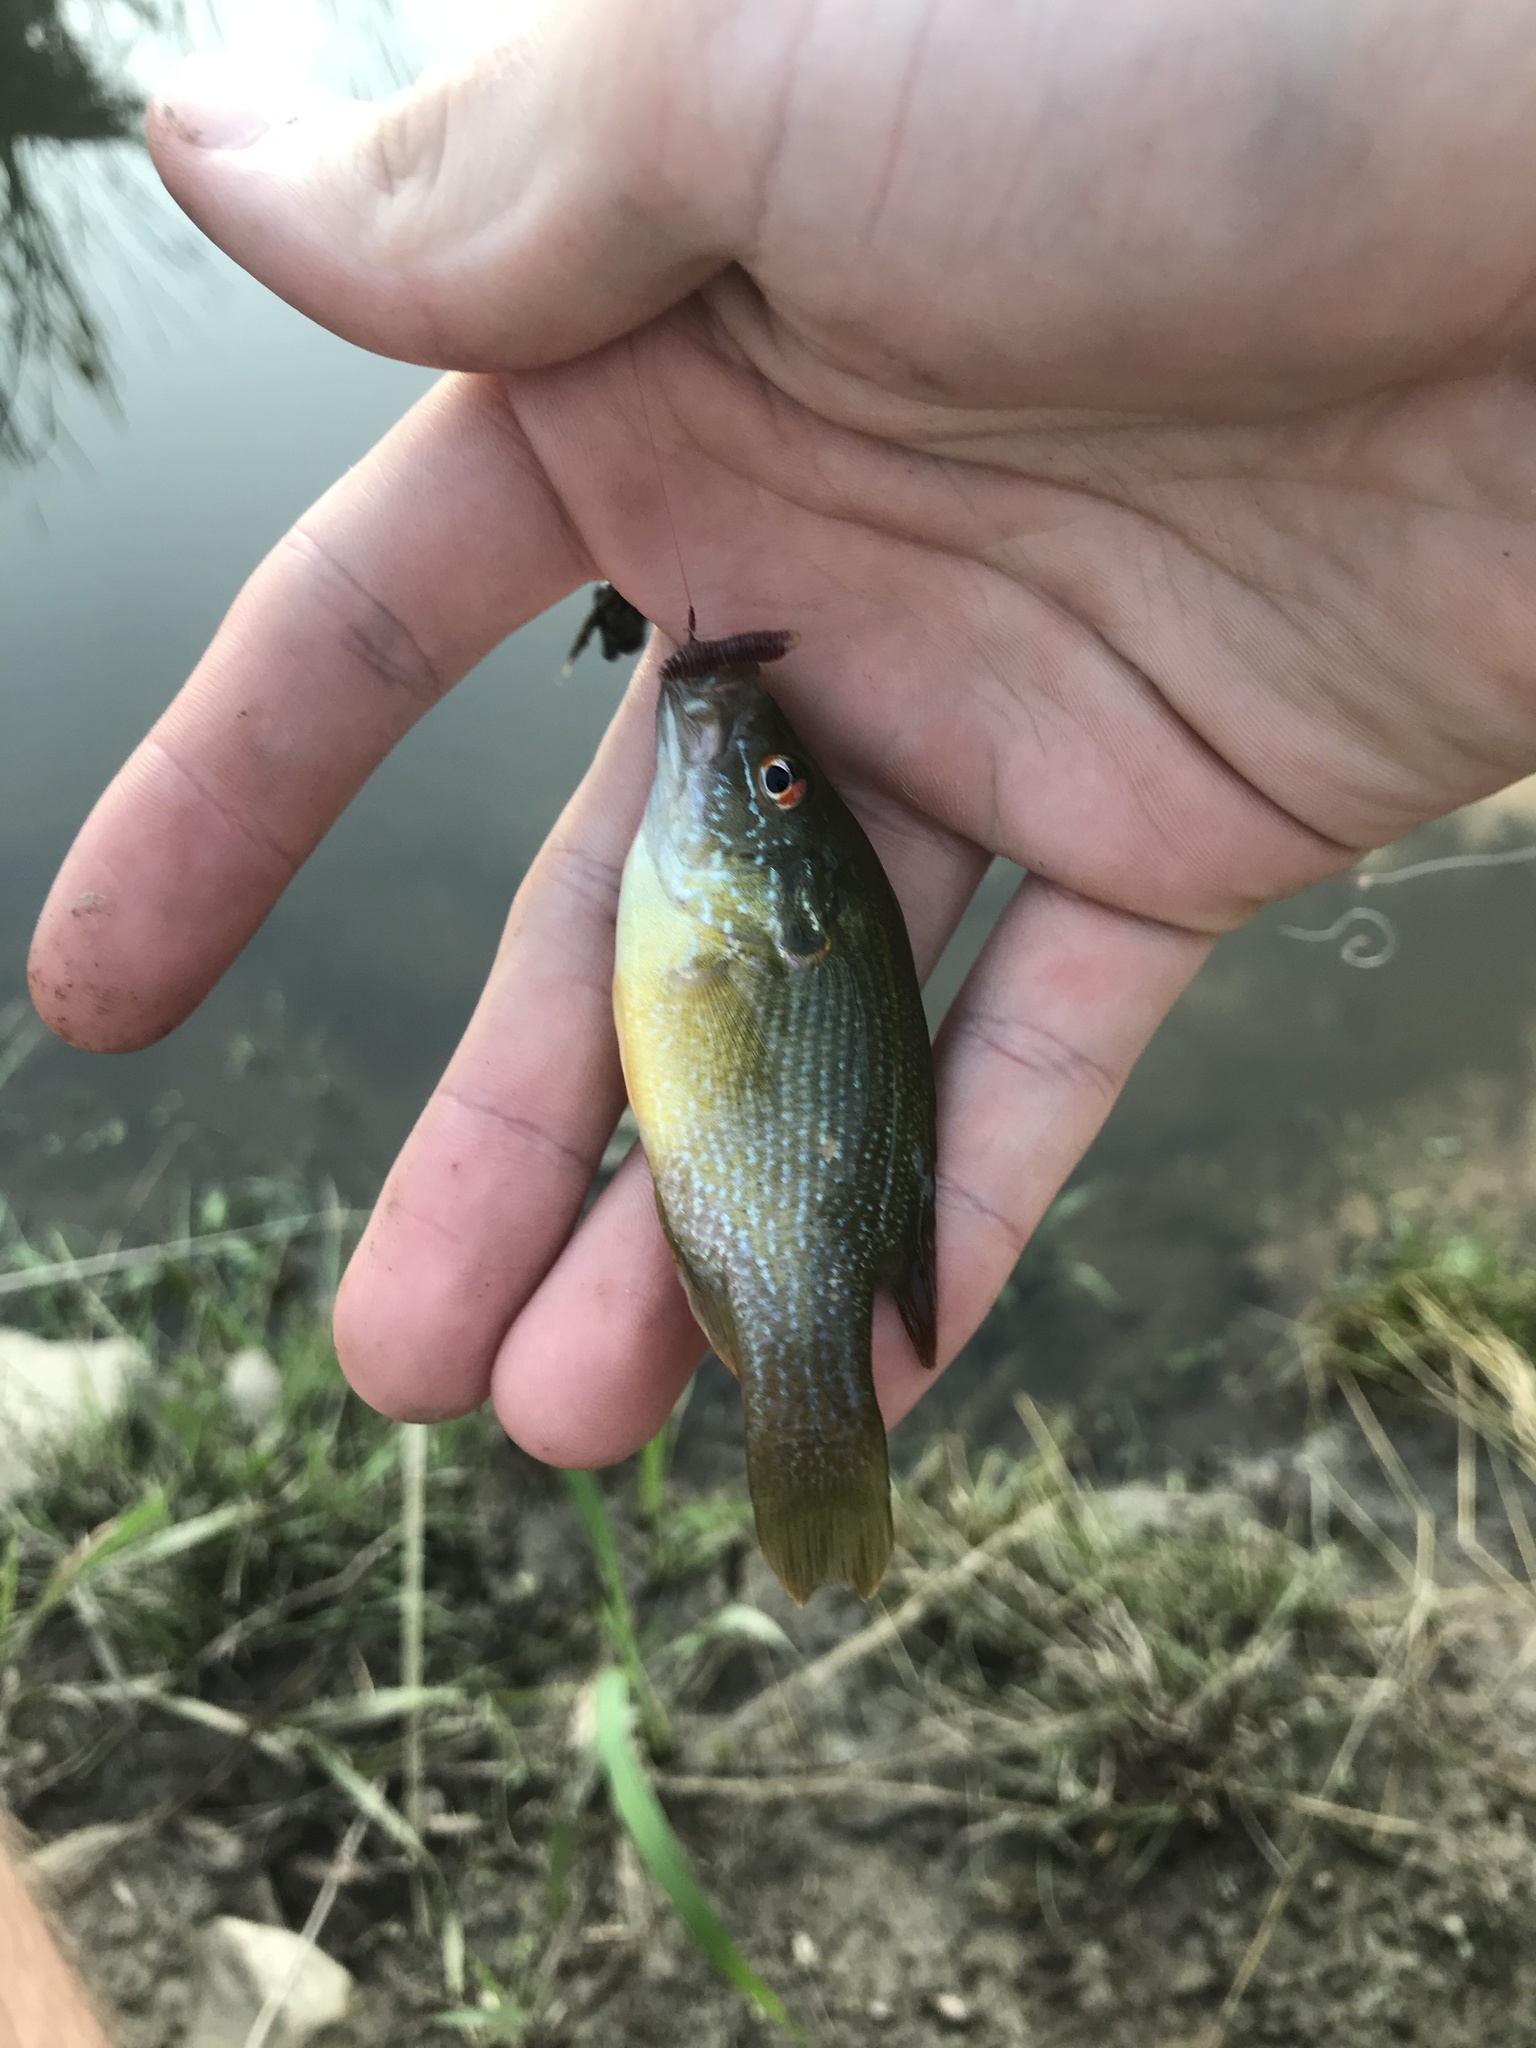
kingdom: Animalia
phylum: Chordata
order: Perciformes
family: Centrarchidae
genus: Lepomis
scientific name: Lepomis cyanellus
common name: Green sunfish
